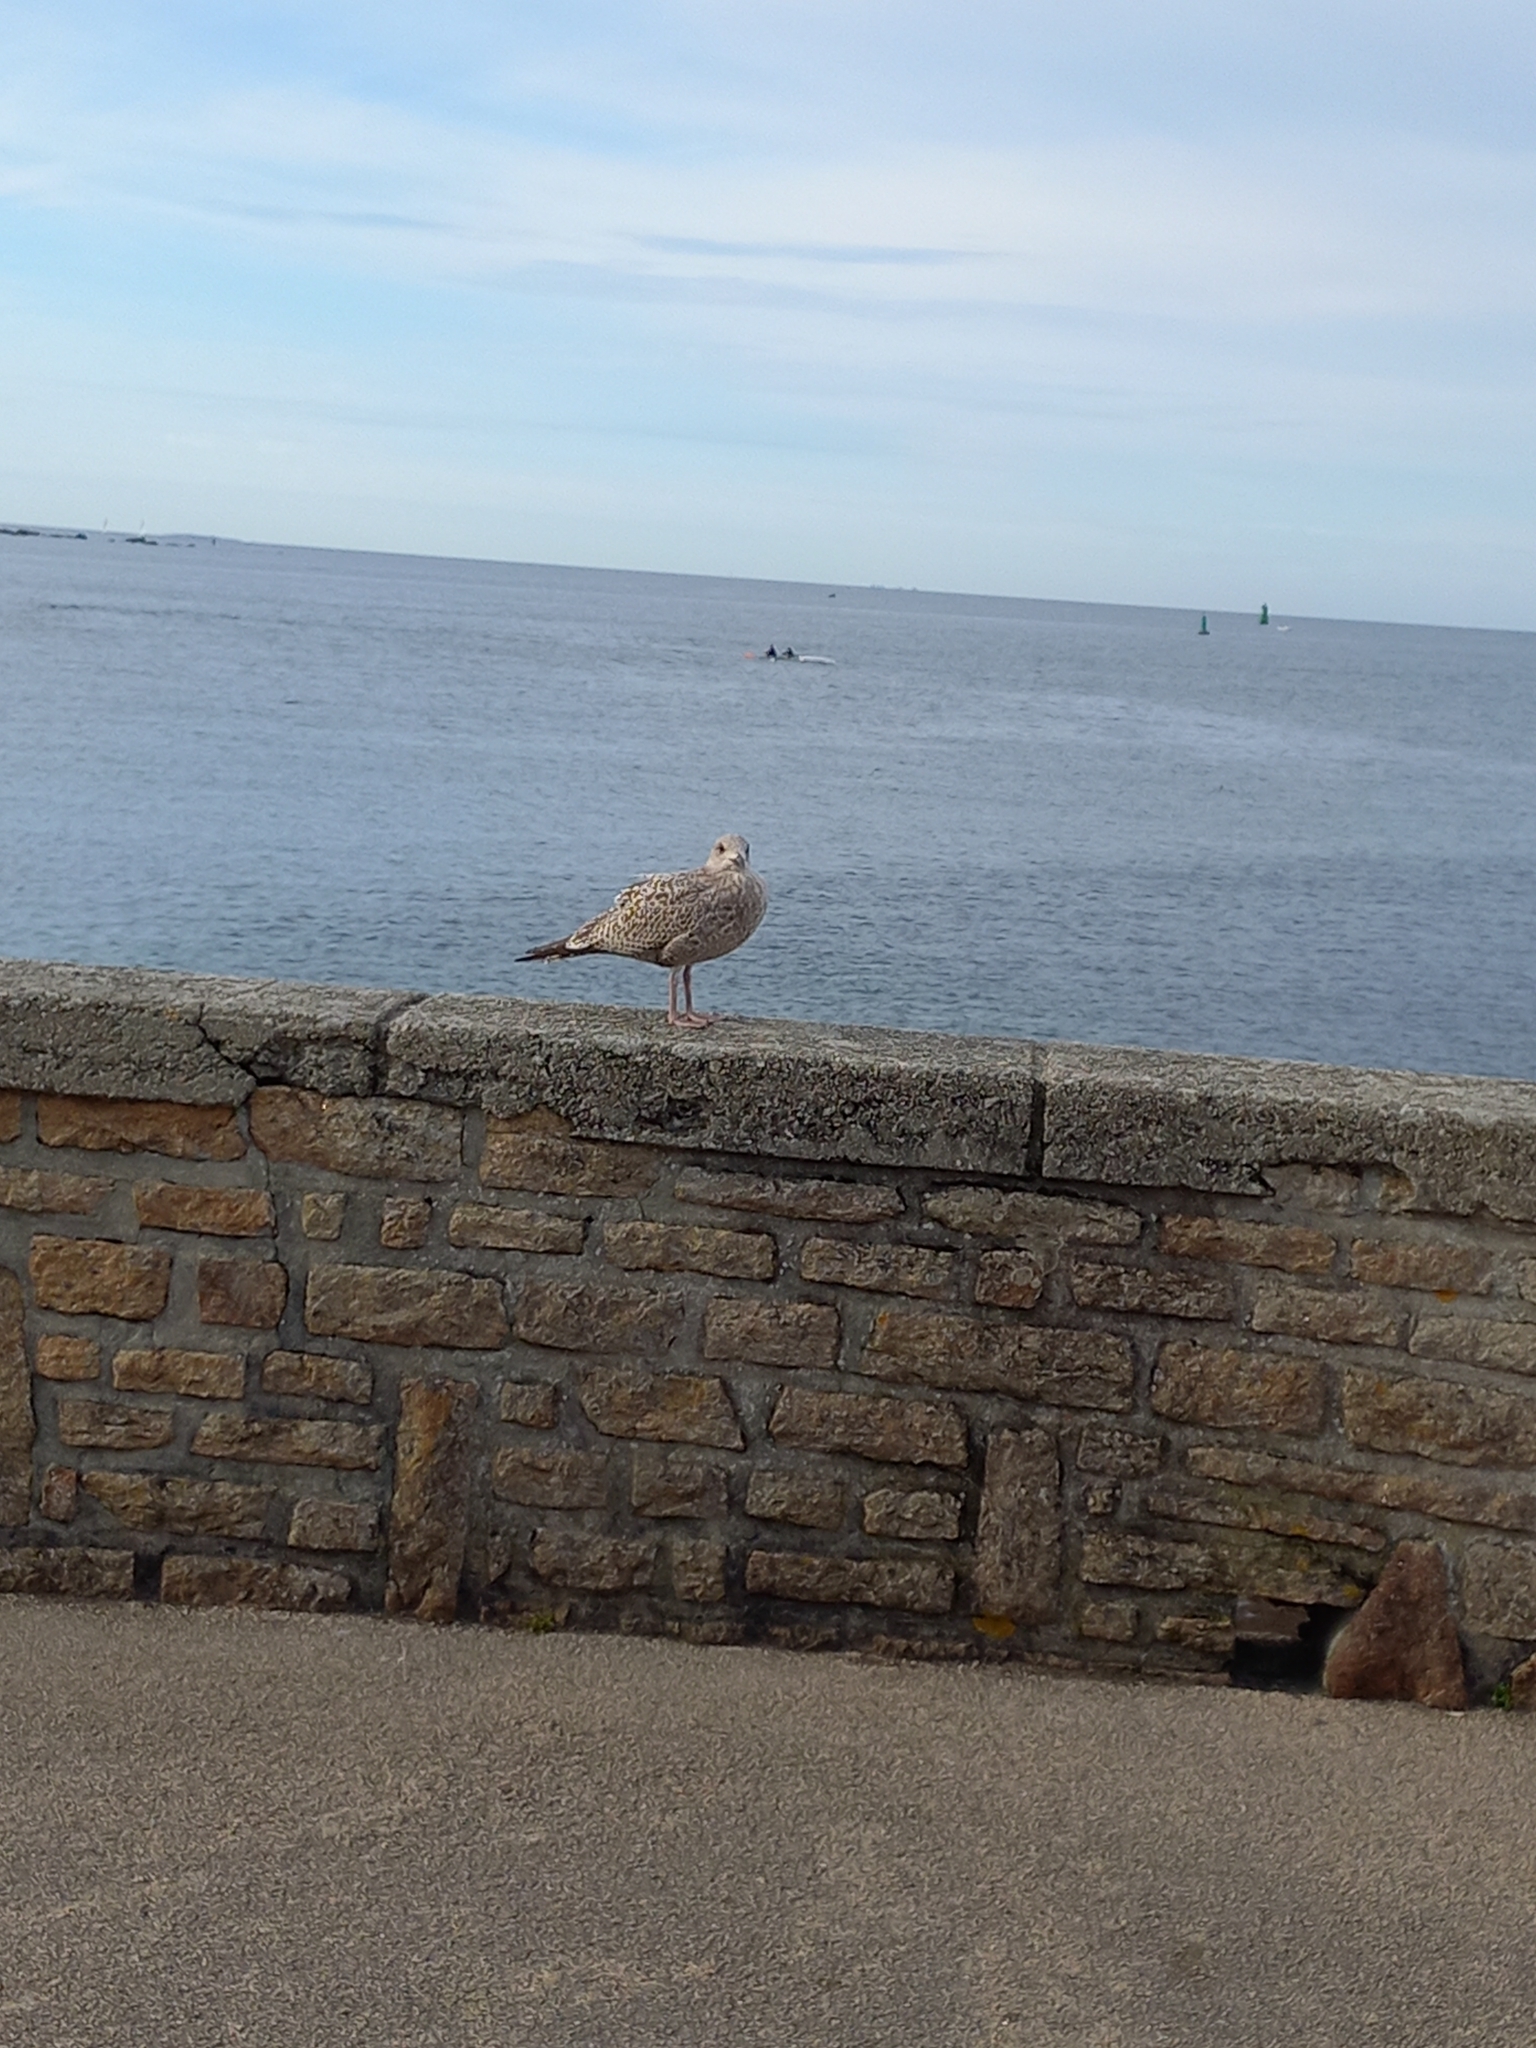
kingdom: Animalia
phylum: Chordata
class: Aves
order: Charadriiformes
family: Laridae
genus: Larus
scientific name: Larus argentatus
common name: Herring gull
